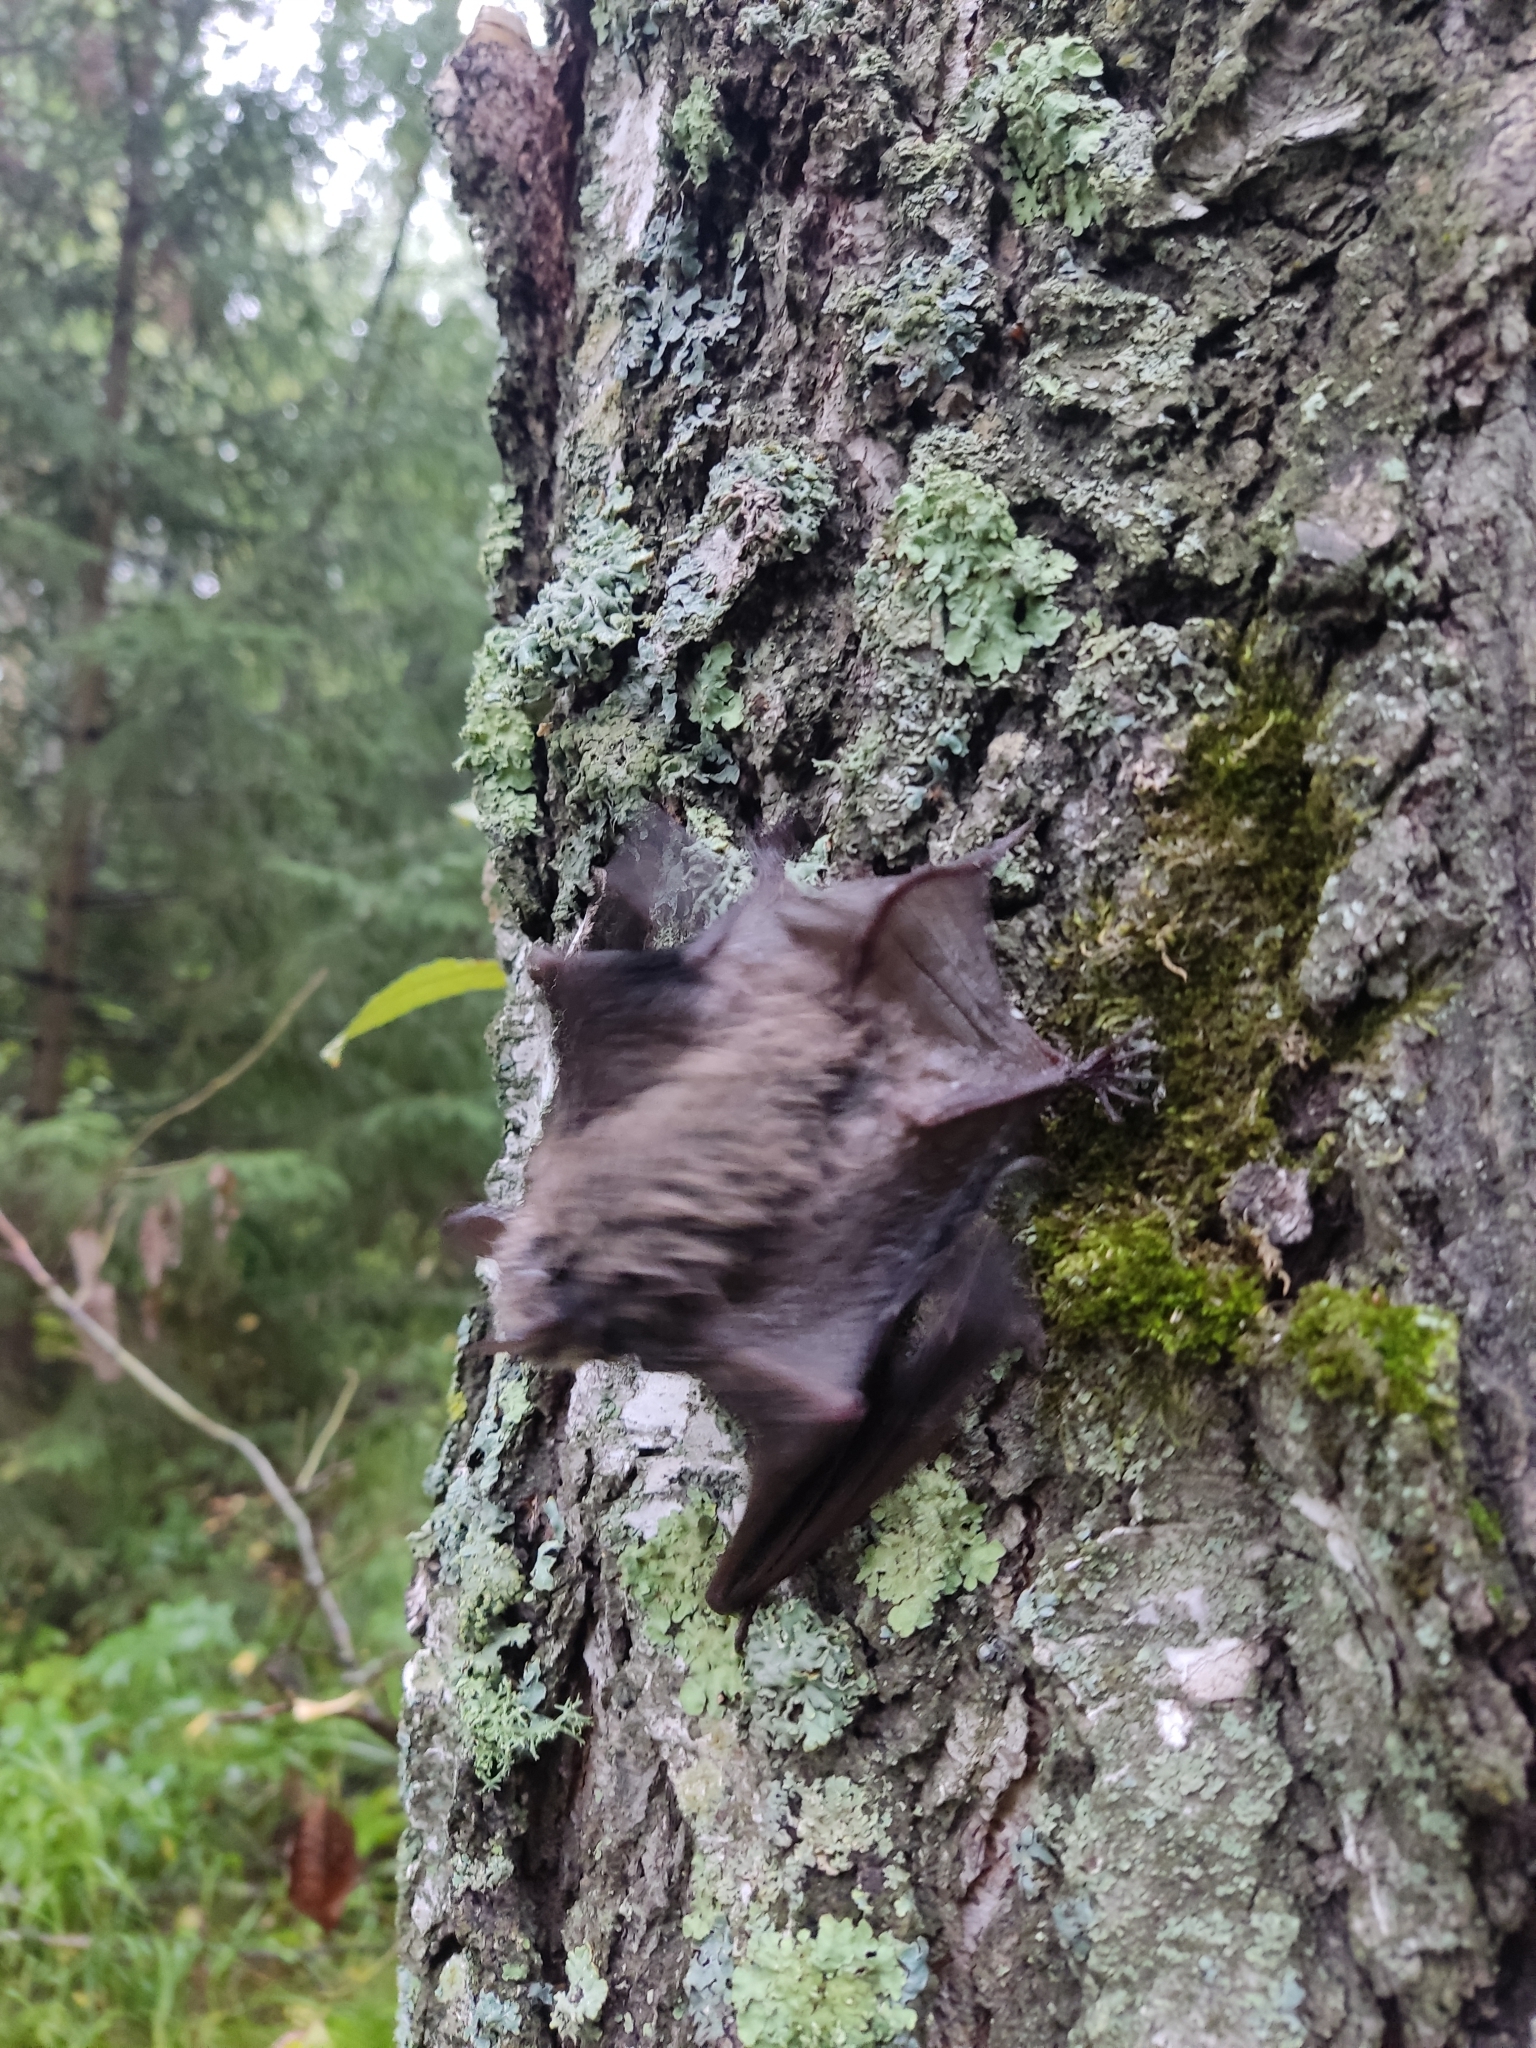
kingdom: Animalia
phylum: Chordata
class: Mammalia
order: Chiroptera
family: Vespertilionidae
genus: Myotis
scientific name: Myotis petax
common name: Russian myotis
